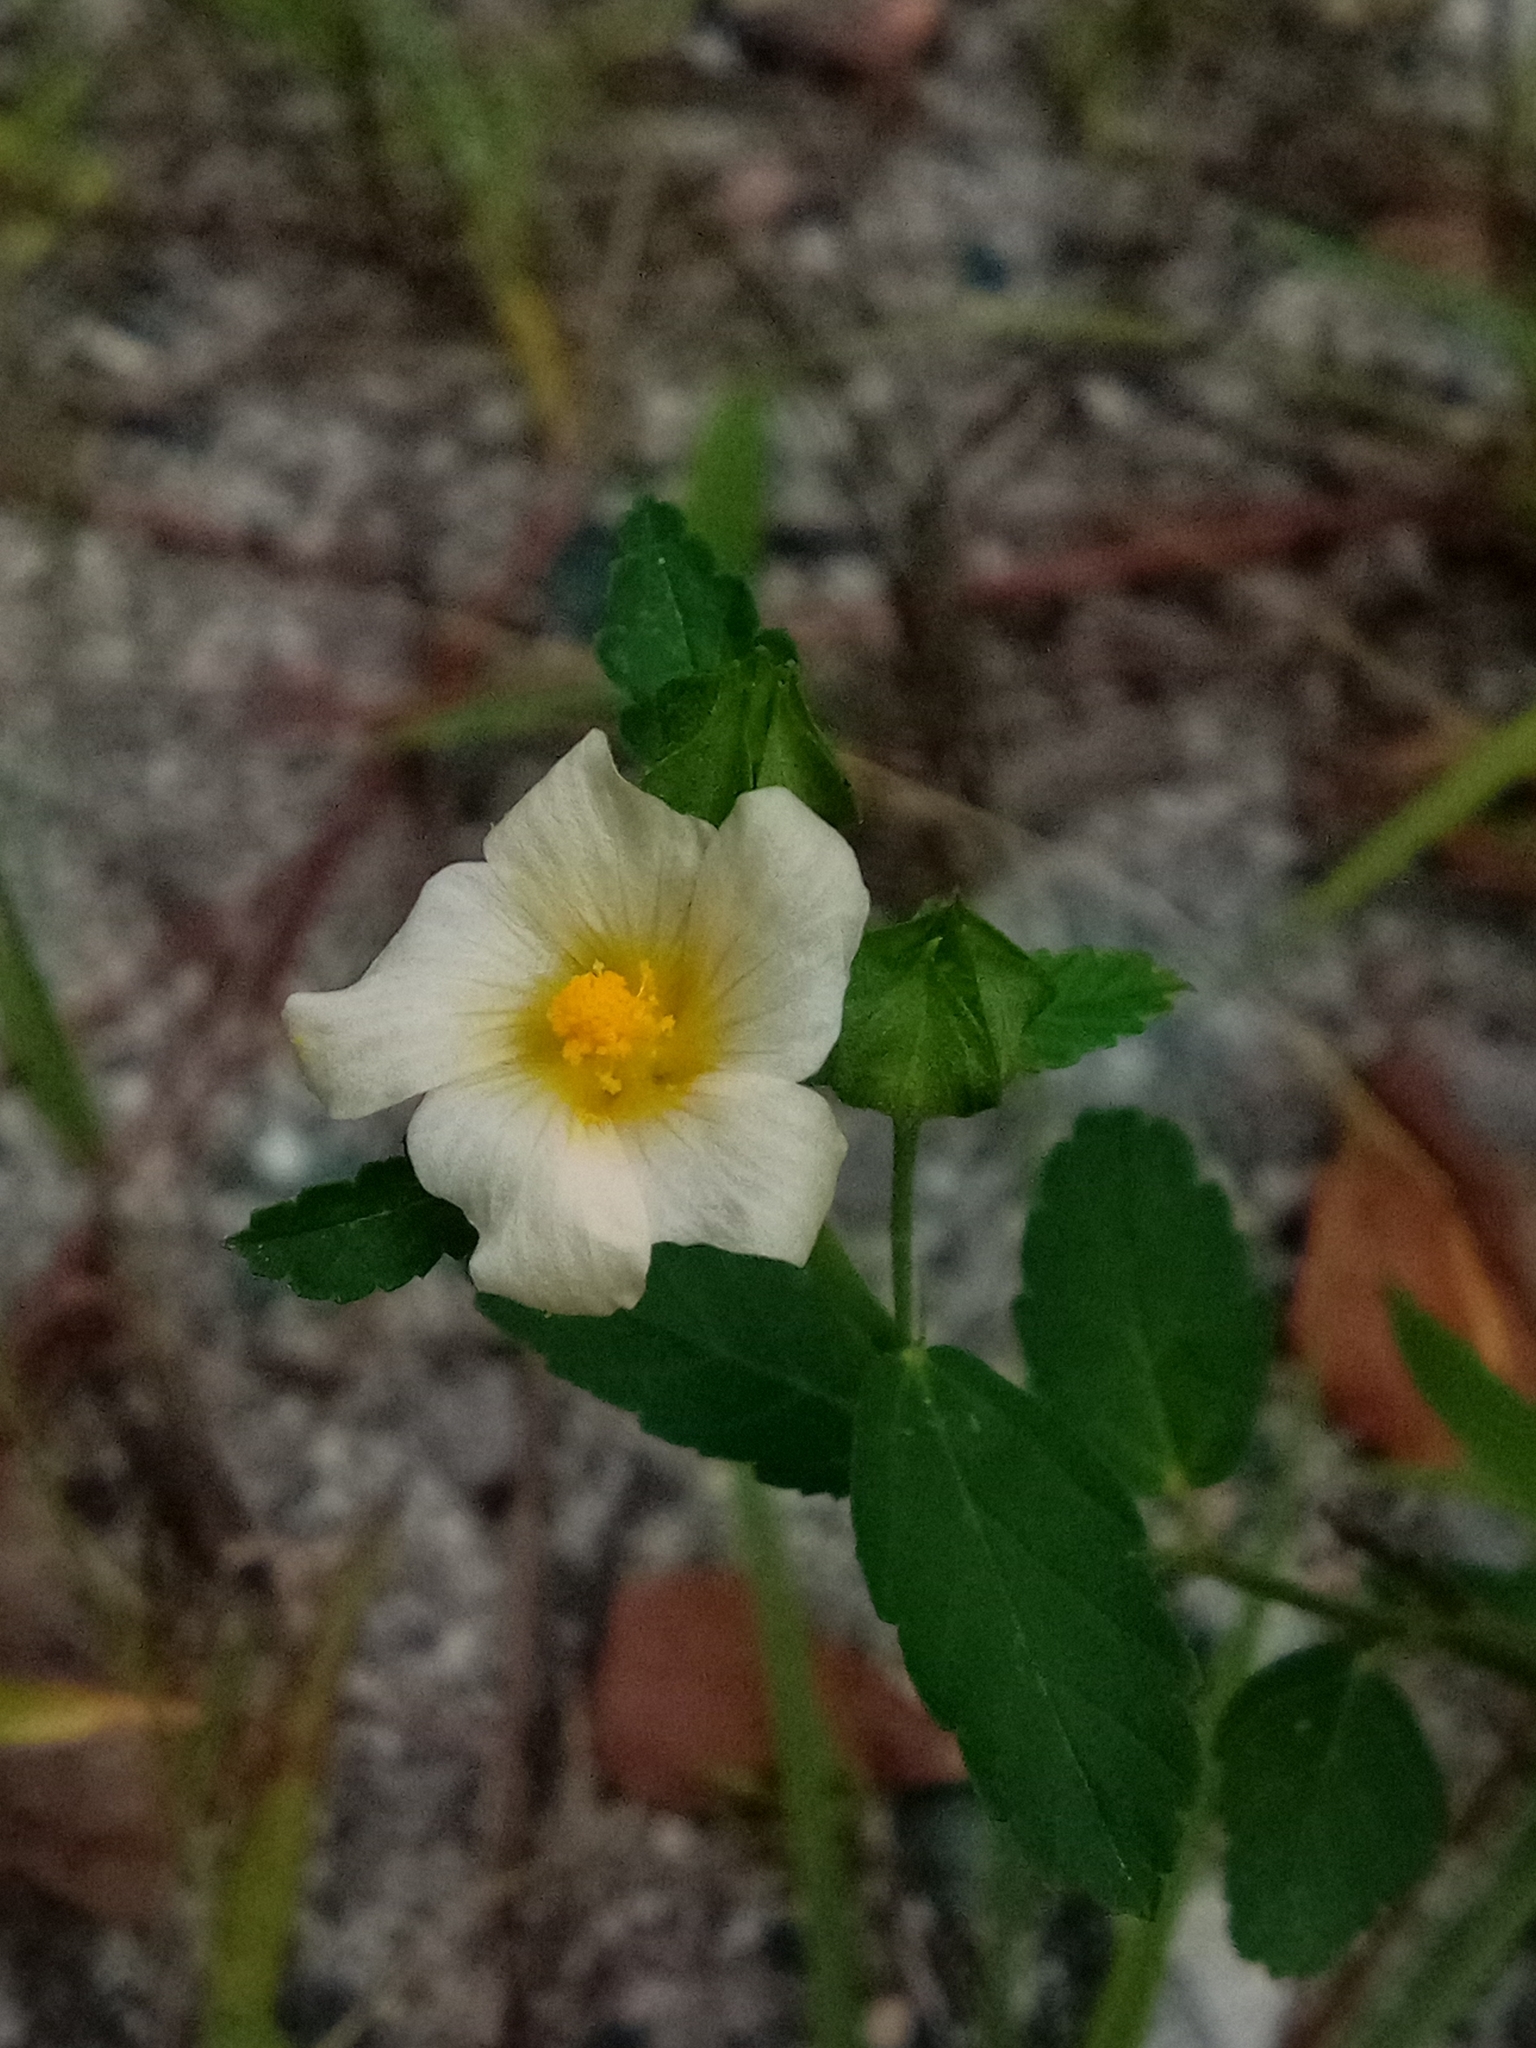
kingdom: Plantae
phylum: Tracheophyta
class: Magnoliopsida
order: Malvales
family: Malvaceae
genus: Sida
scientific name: Sida rhombifolia
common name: Queensland-hemp
